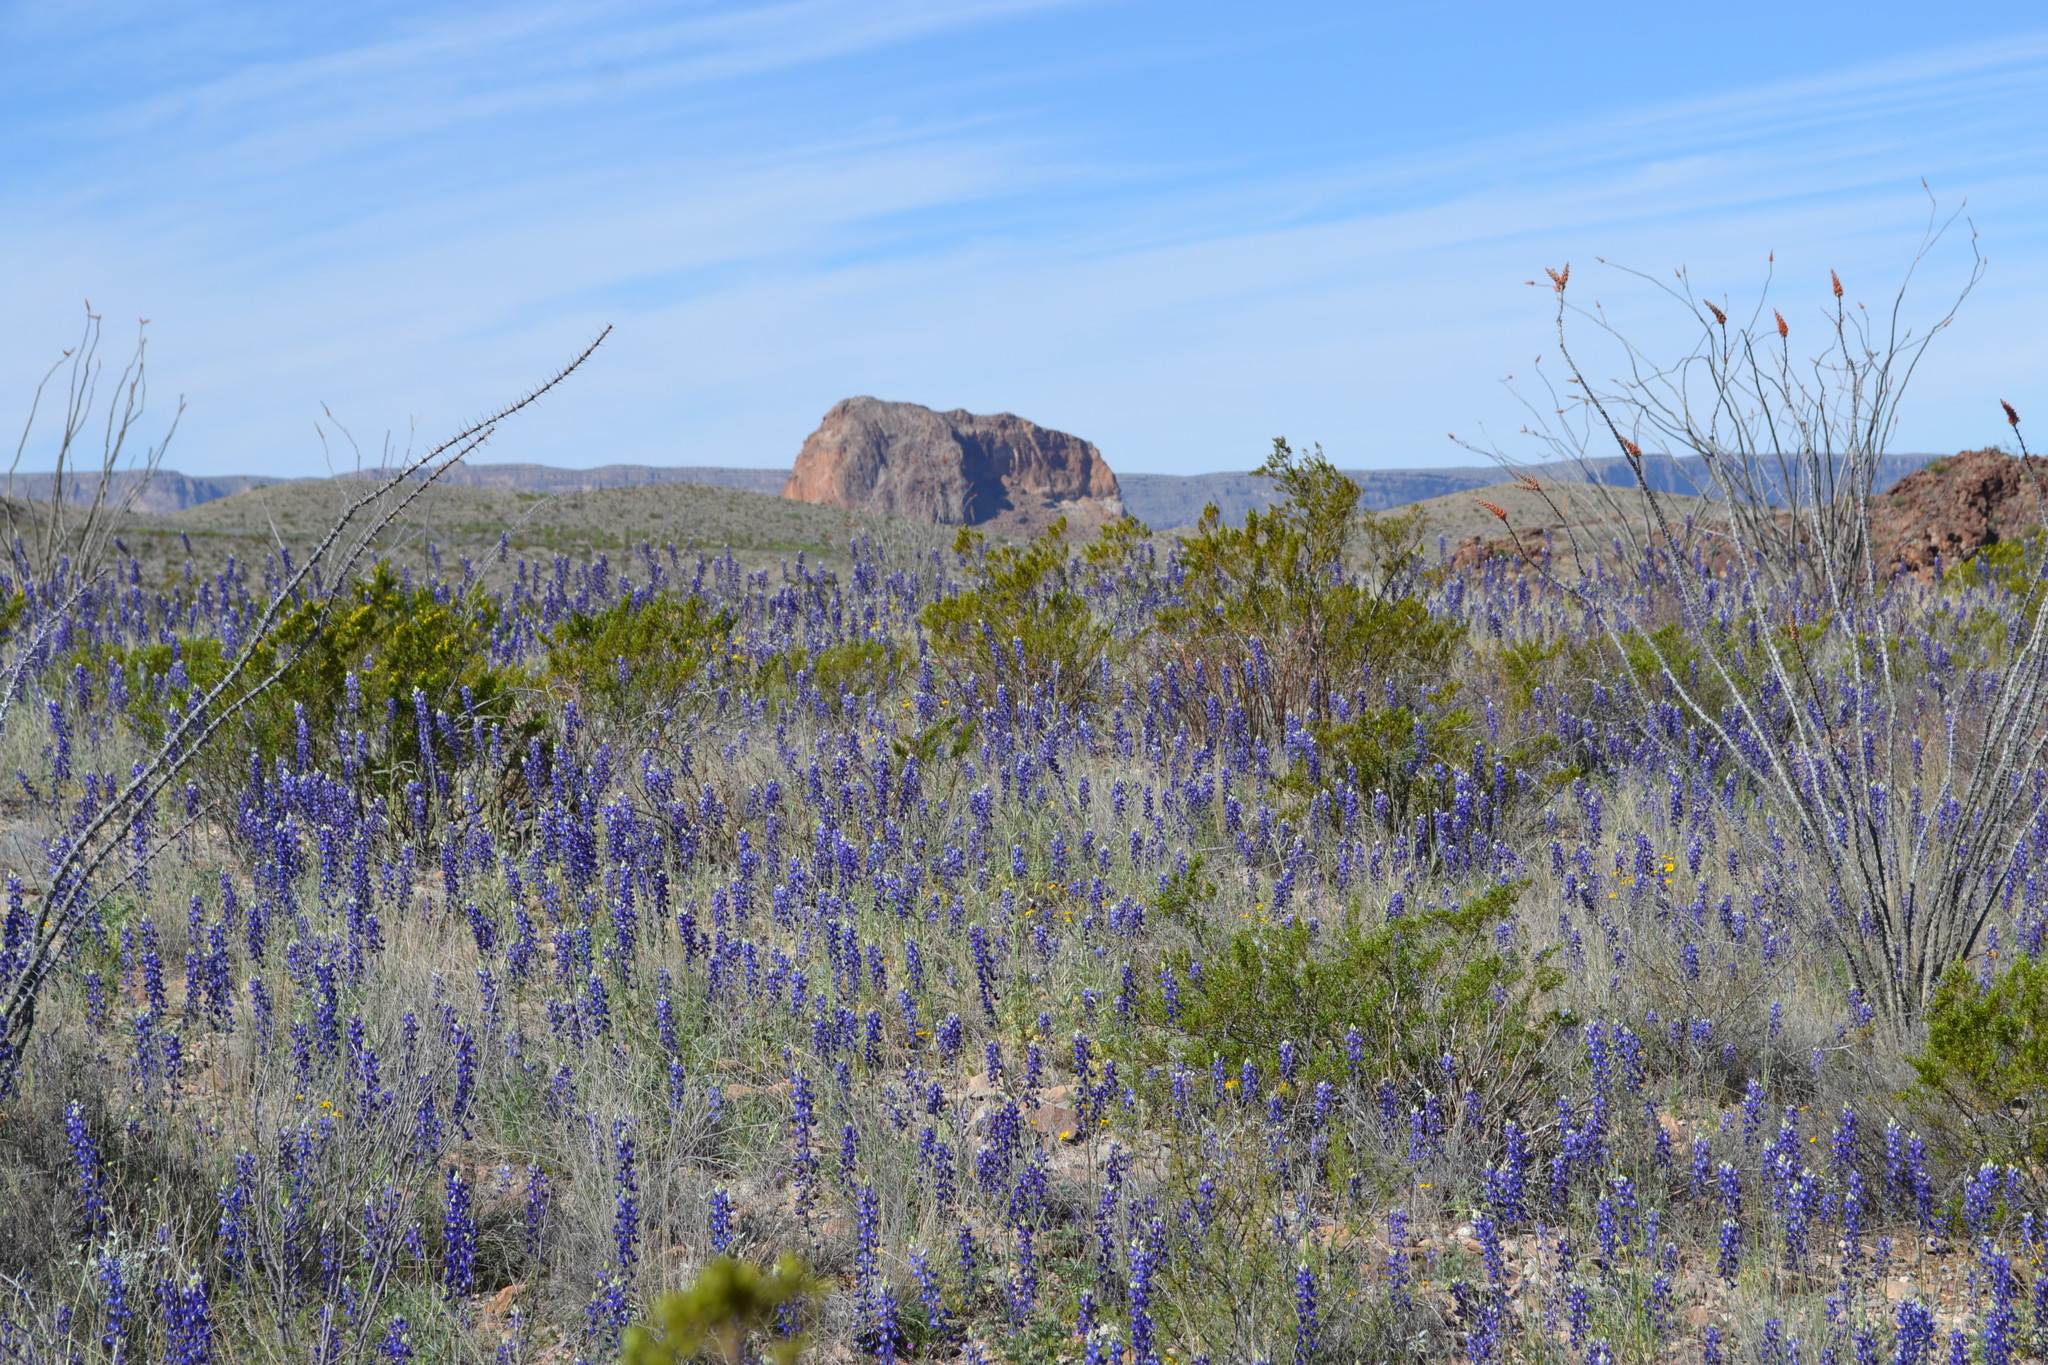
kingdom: Plantae
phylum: Tracheophyta
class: Magnoliopsida
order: Fabales
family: Fabaceae
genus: Lupinus
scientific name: Lupinus havardii
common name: Chisos bluebonnet
